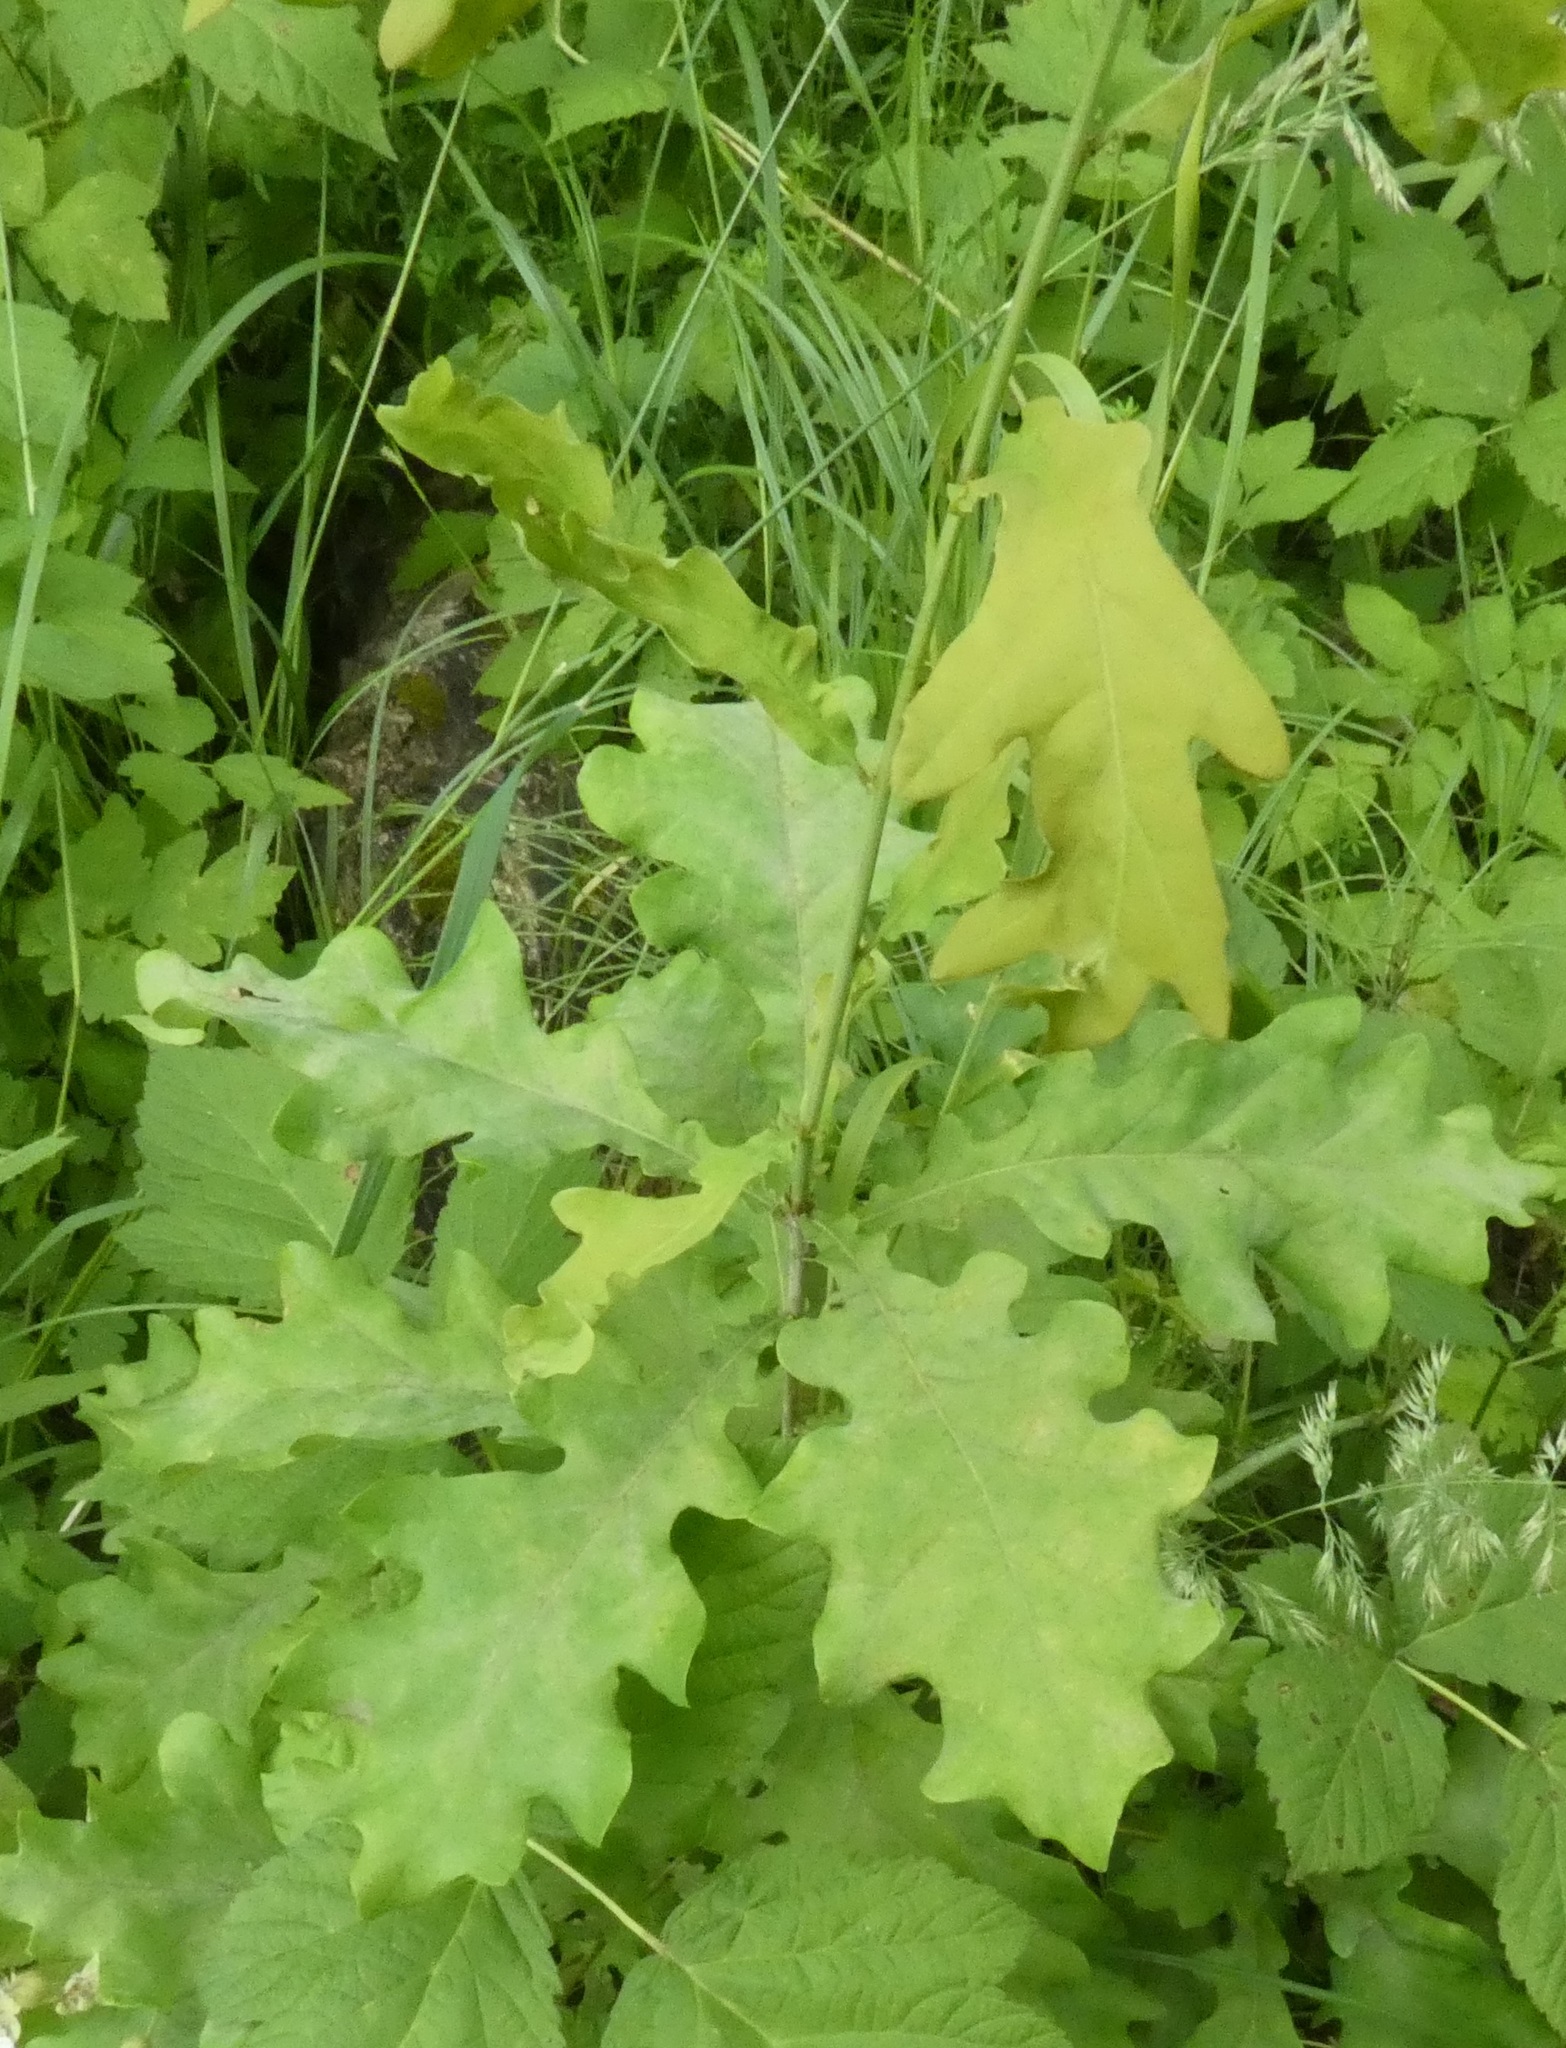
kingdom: Plantae
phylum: Tracheophyta
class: Magnoliopsida
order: Fagales
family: Fagaceae
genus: Quercus
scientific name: Quercus robur
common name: Pedunculate oak
